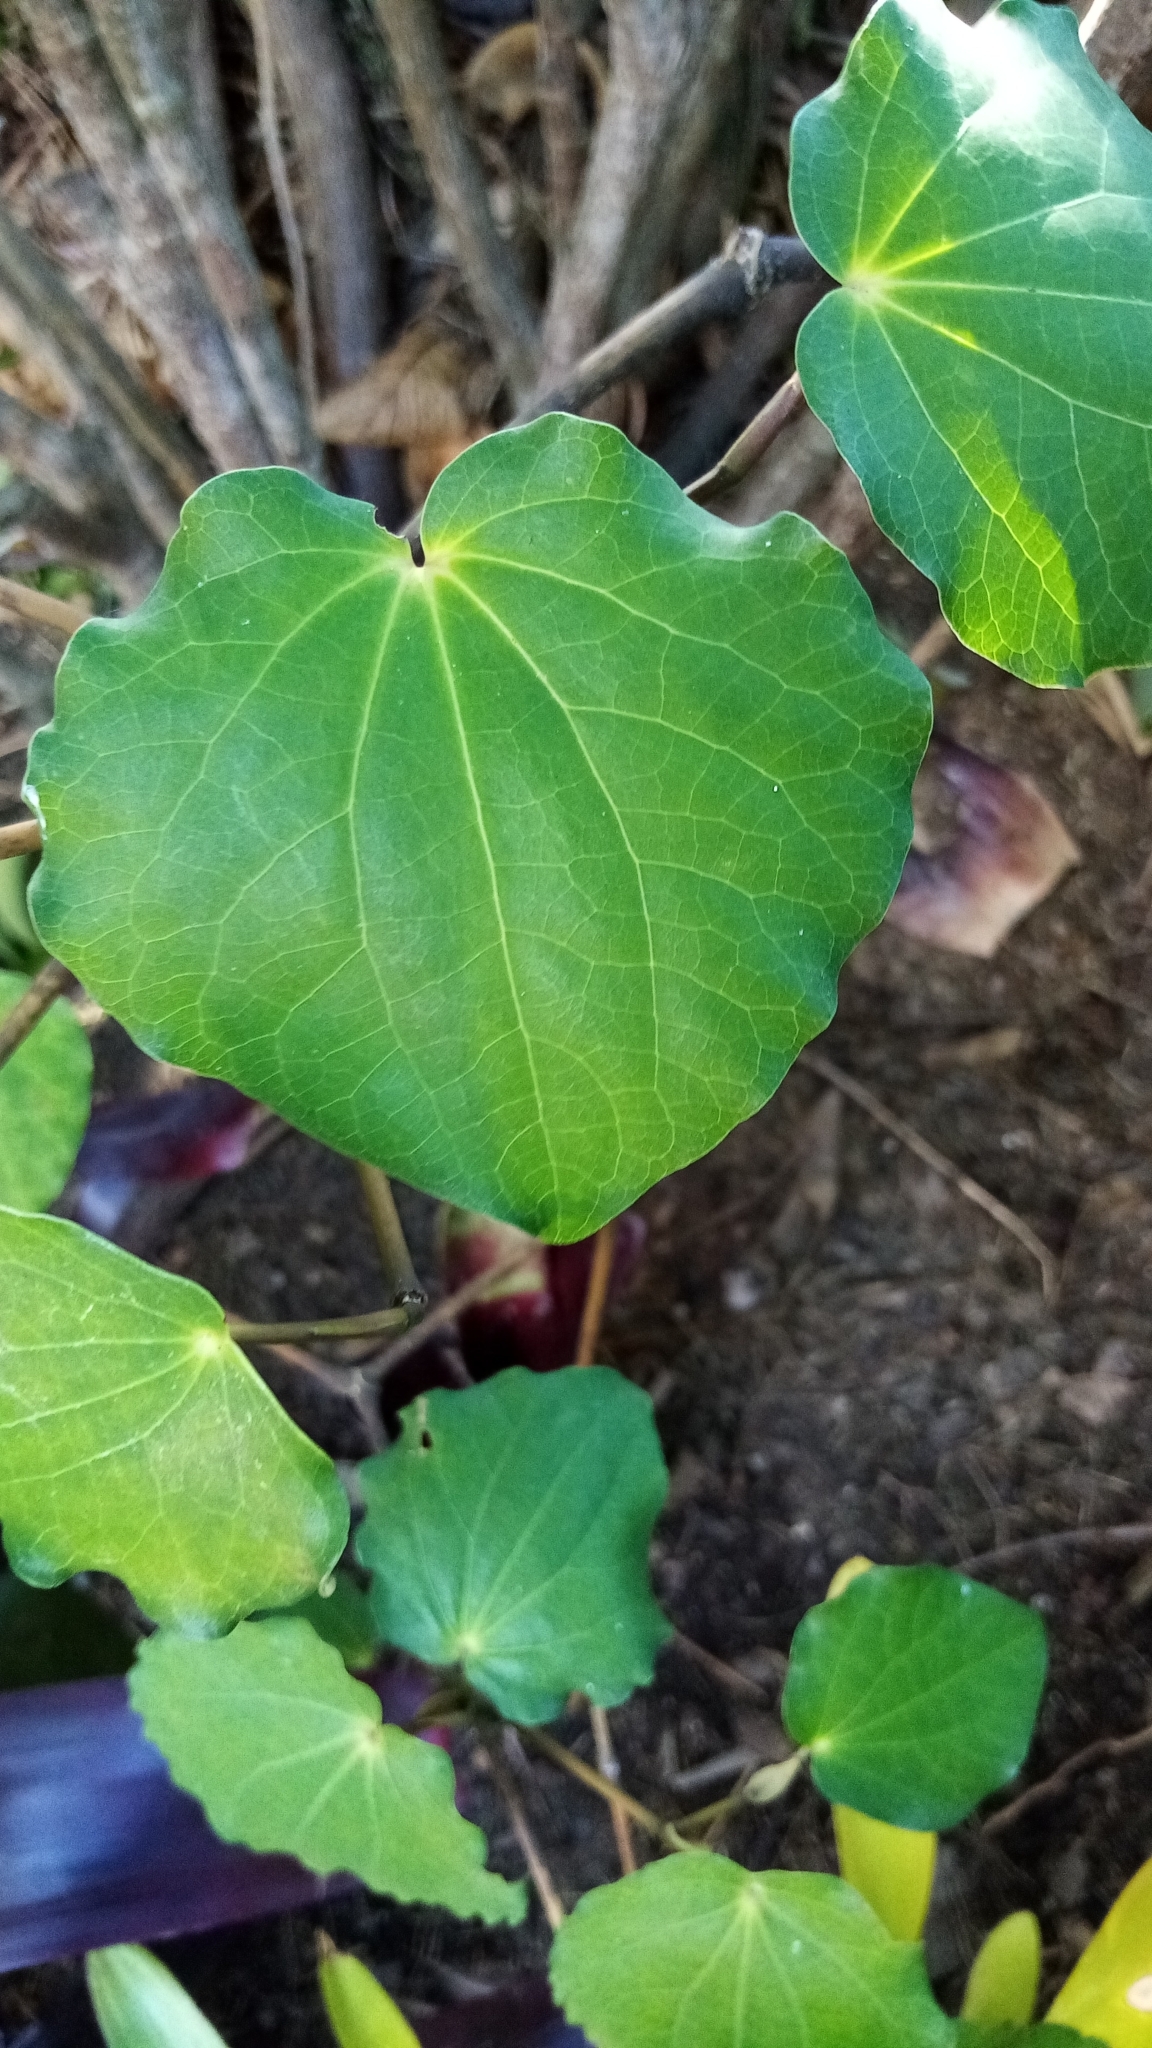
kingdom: Plantae
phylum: Tracheophyta
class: Magnoliopsida
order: Piperales
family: Piperaceae
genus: Macropiper
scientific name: Macropiper excelsum
